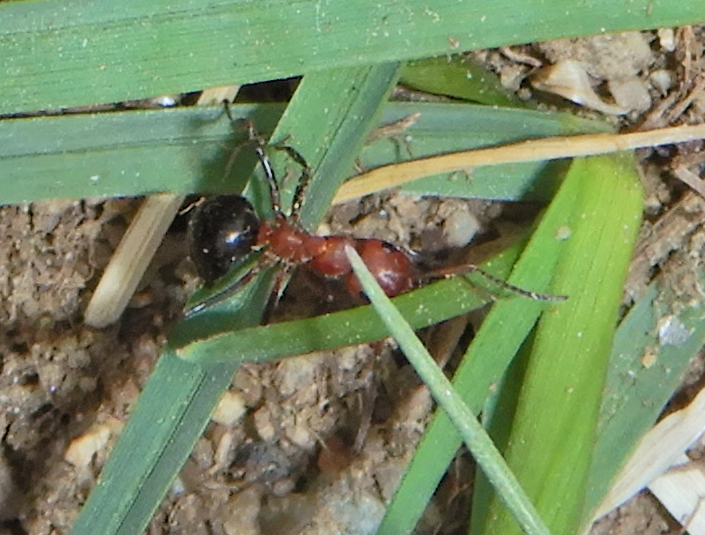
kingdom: Animalia
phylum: Arthropoda
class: Insecta
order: Hymenoptera
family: Formicidae
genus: Formica
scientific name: Formica exsectoides
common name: Allegheny mound ant
